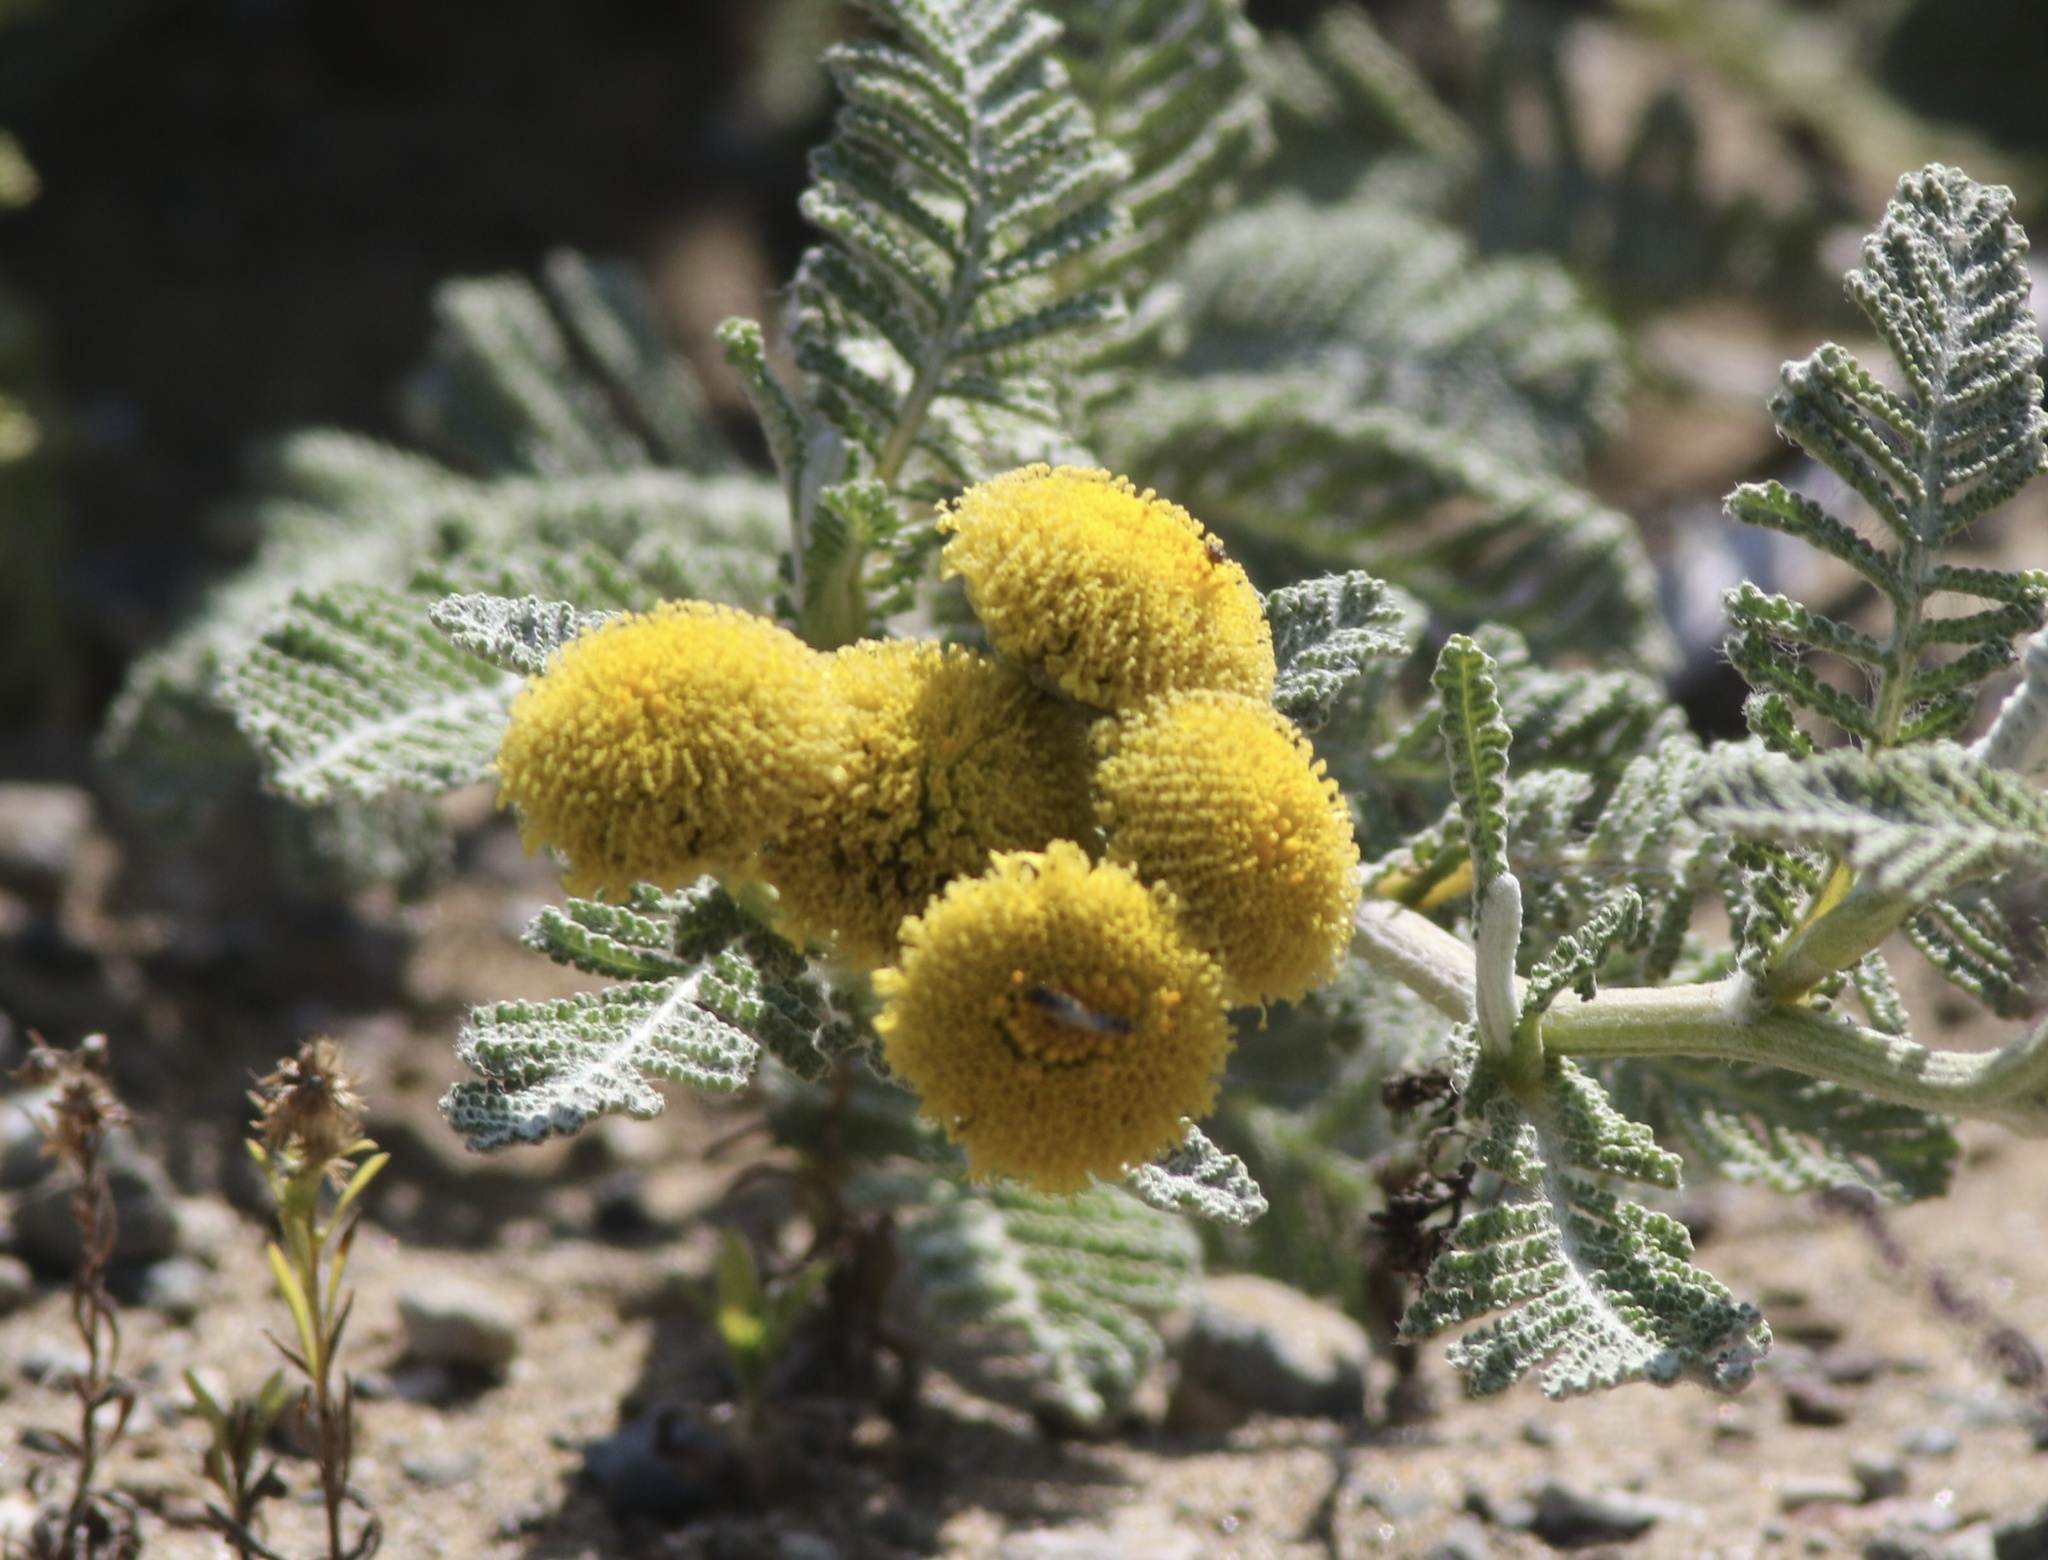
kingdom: Plantae
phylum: Tracheophyta
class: Magnoliopsida
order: Asterales
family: Asteraceae
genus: Tanacetum
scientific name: Tanacetum bipinnatum
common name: Dwarf tansy
